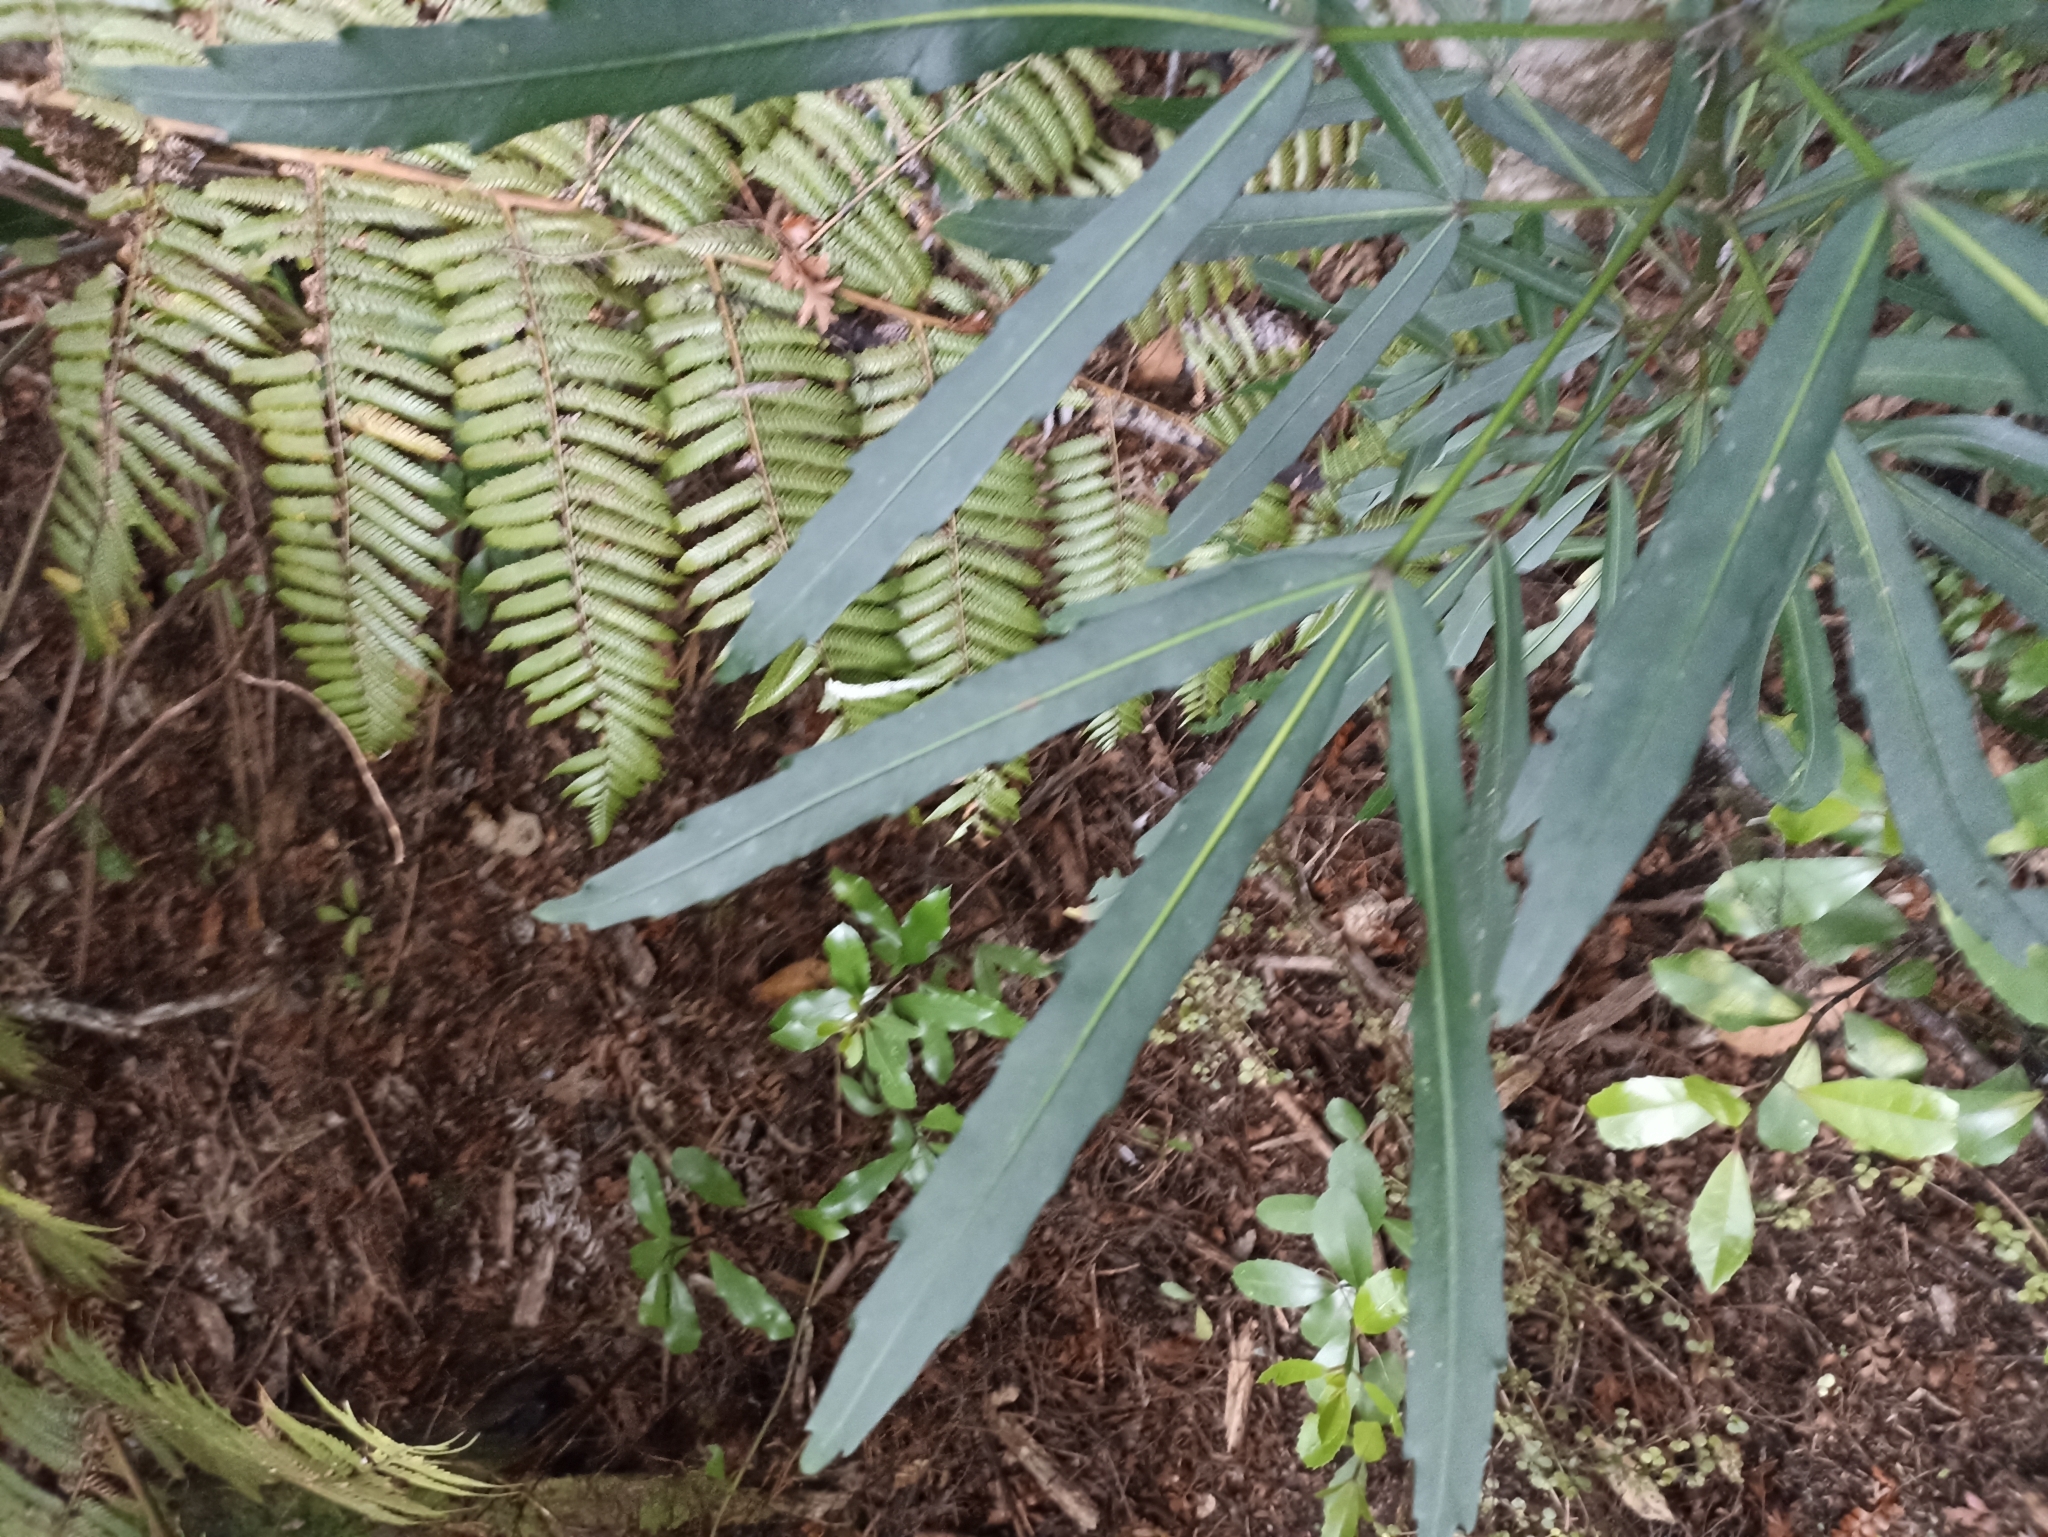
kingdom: Plantae
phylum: Tracheophyta
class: Magnoliopsida
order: Apiales
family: Araliaceae
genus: Pseudopanax
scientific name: Pseudopanax
